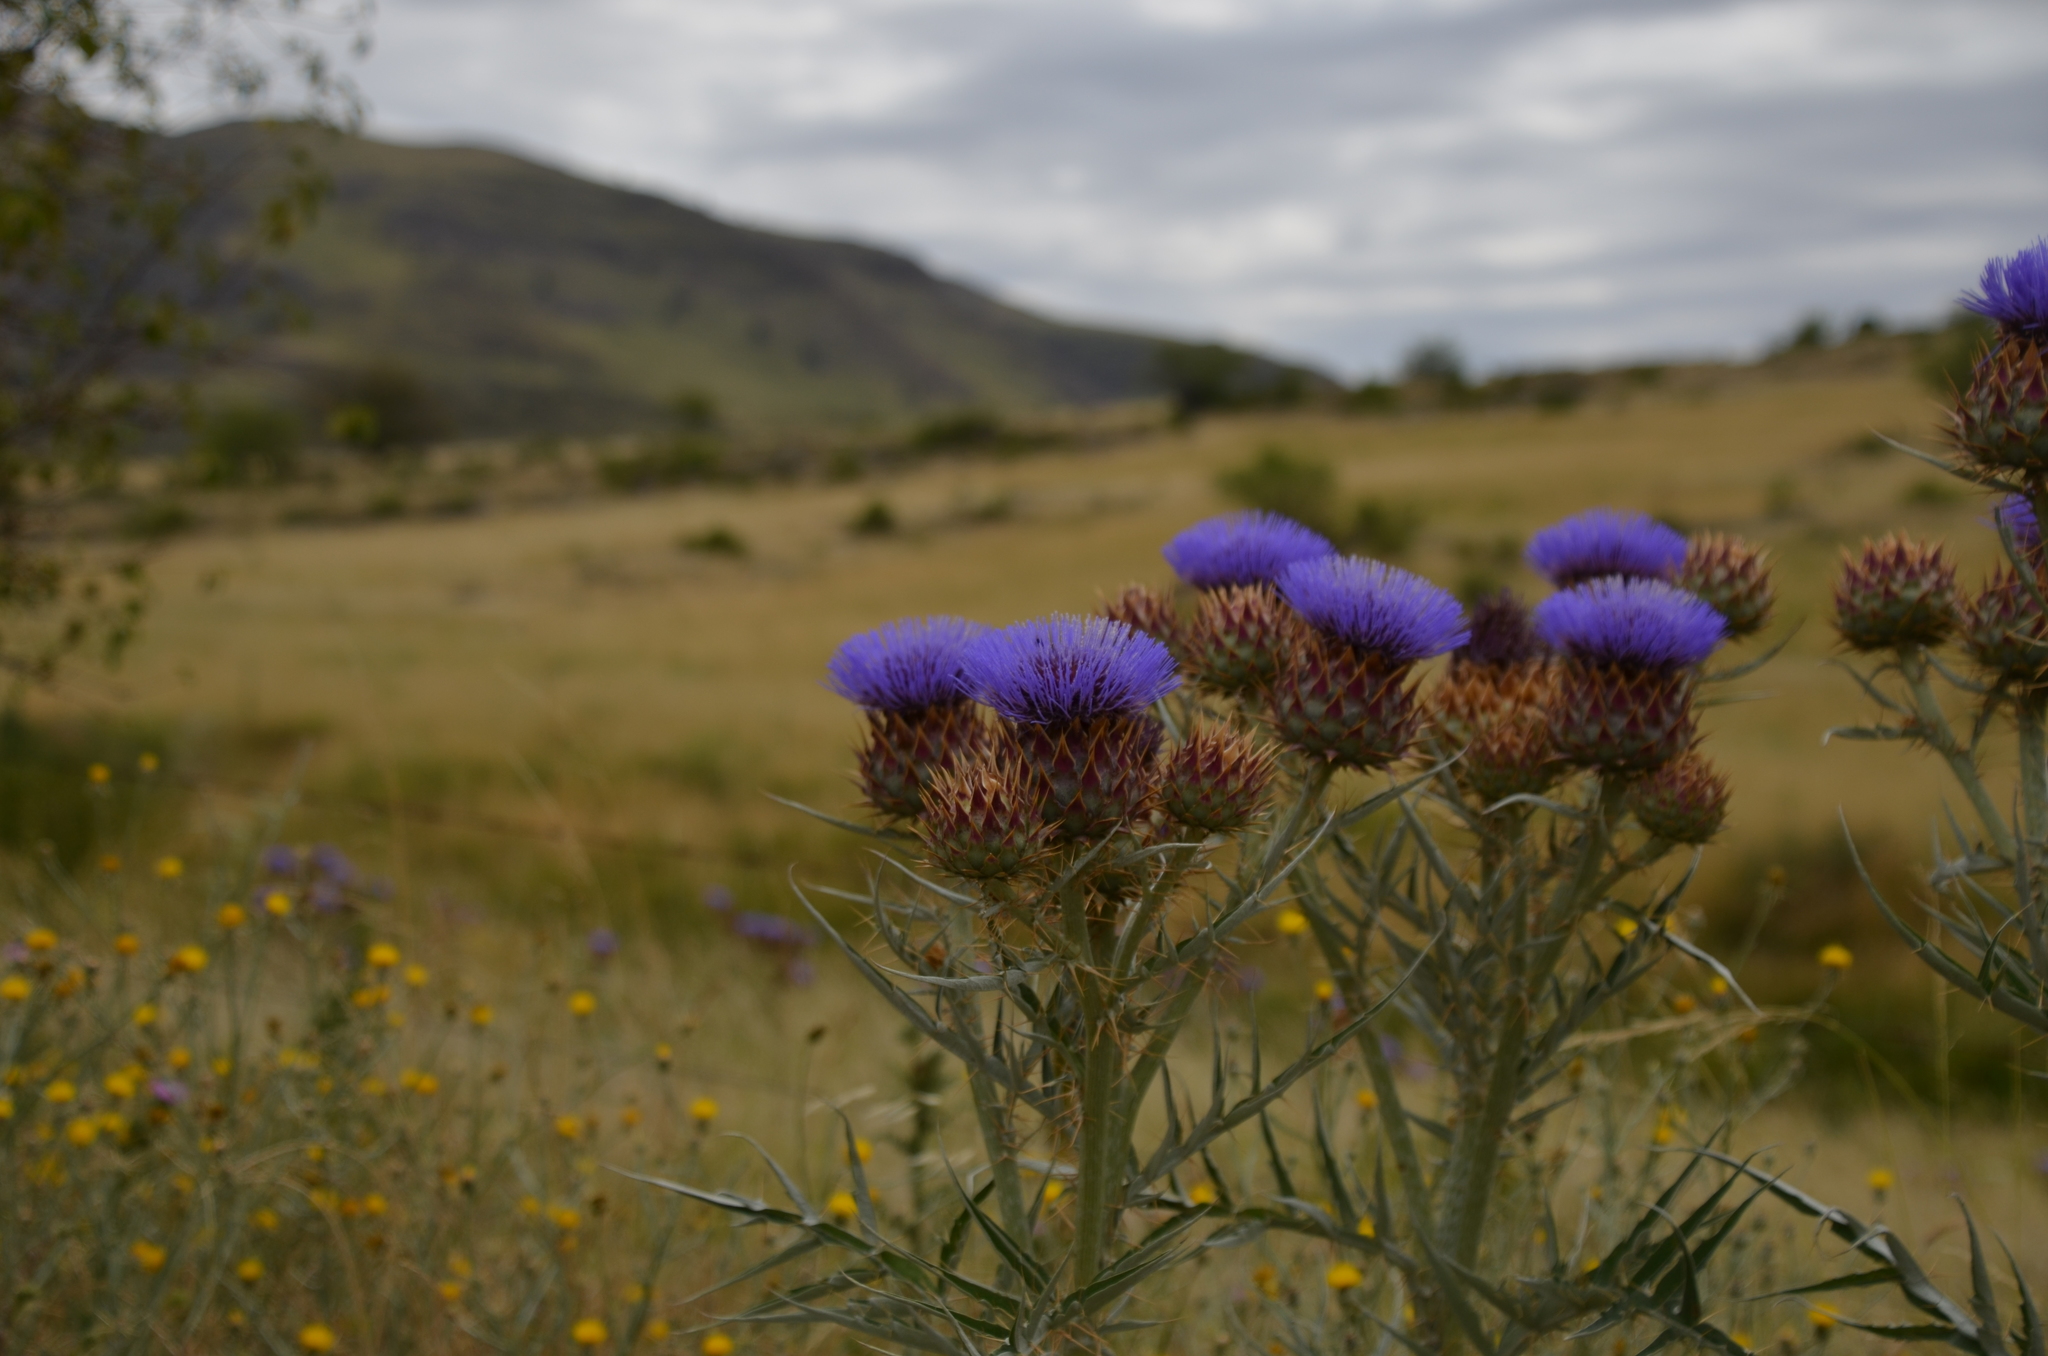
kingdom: Plantae
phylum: Tracheophyta
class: Magnoliopsida
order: Asterales
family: Asteraceae
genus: Cynara
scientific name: Cynara cardunculus
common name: Globe artichoke
